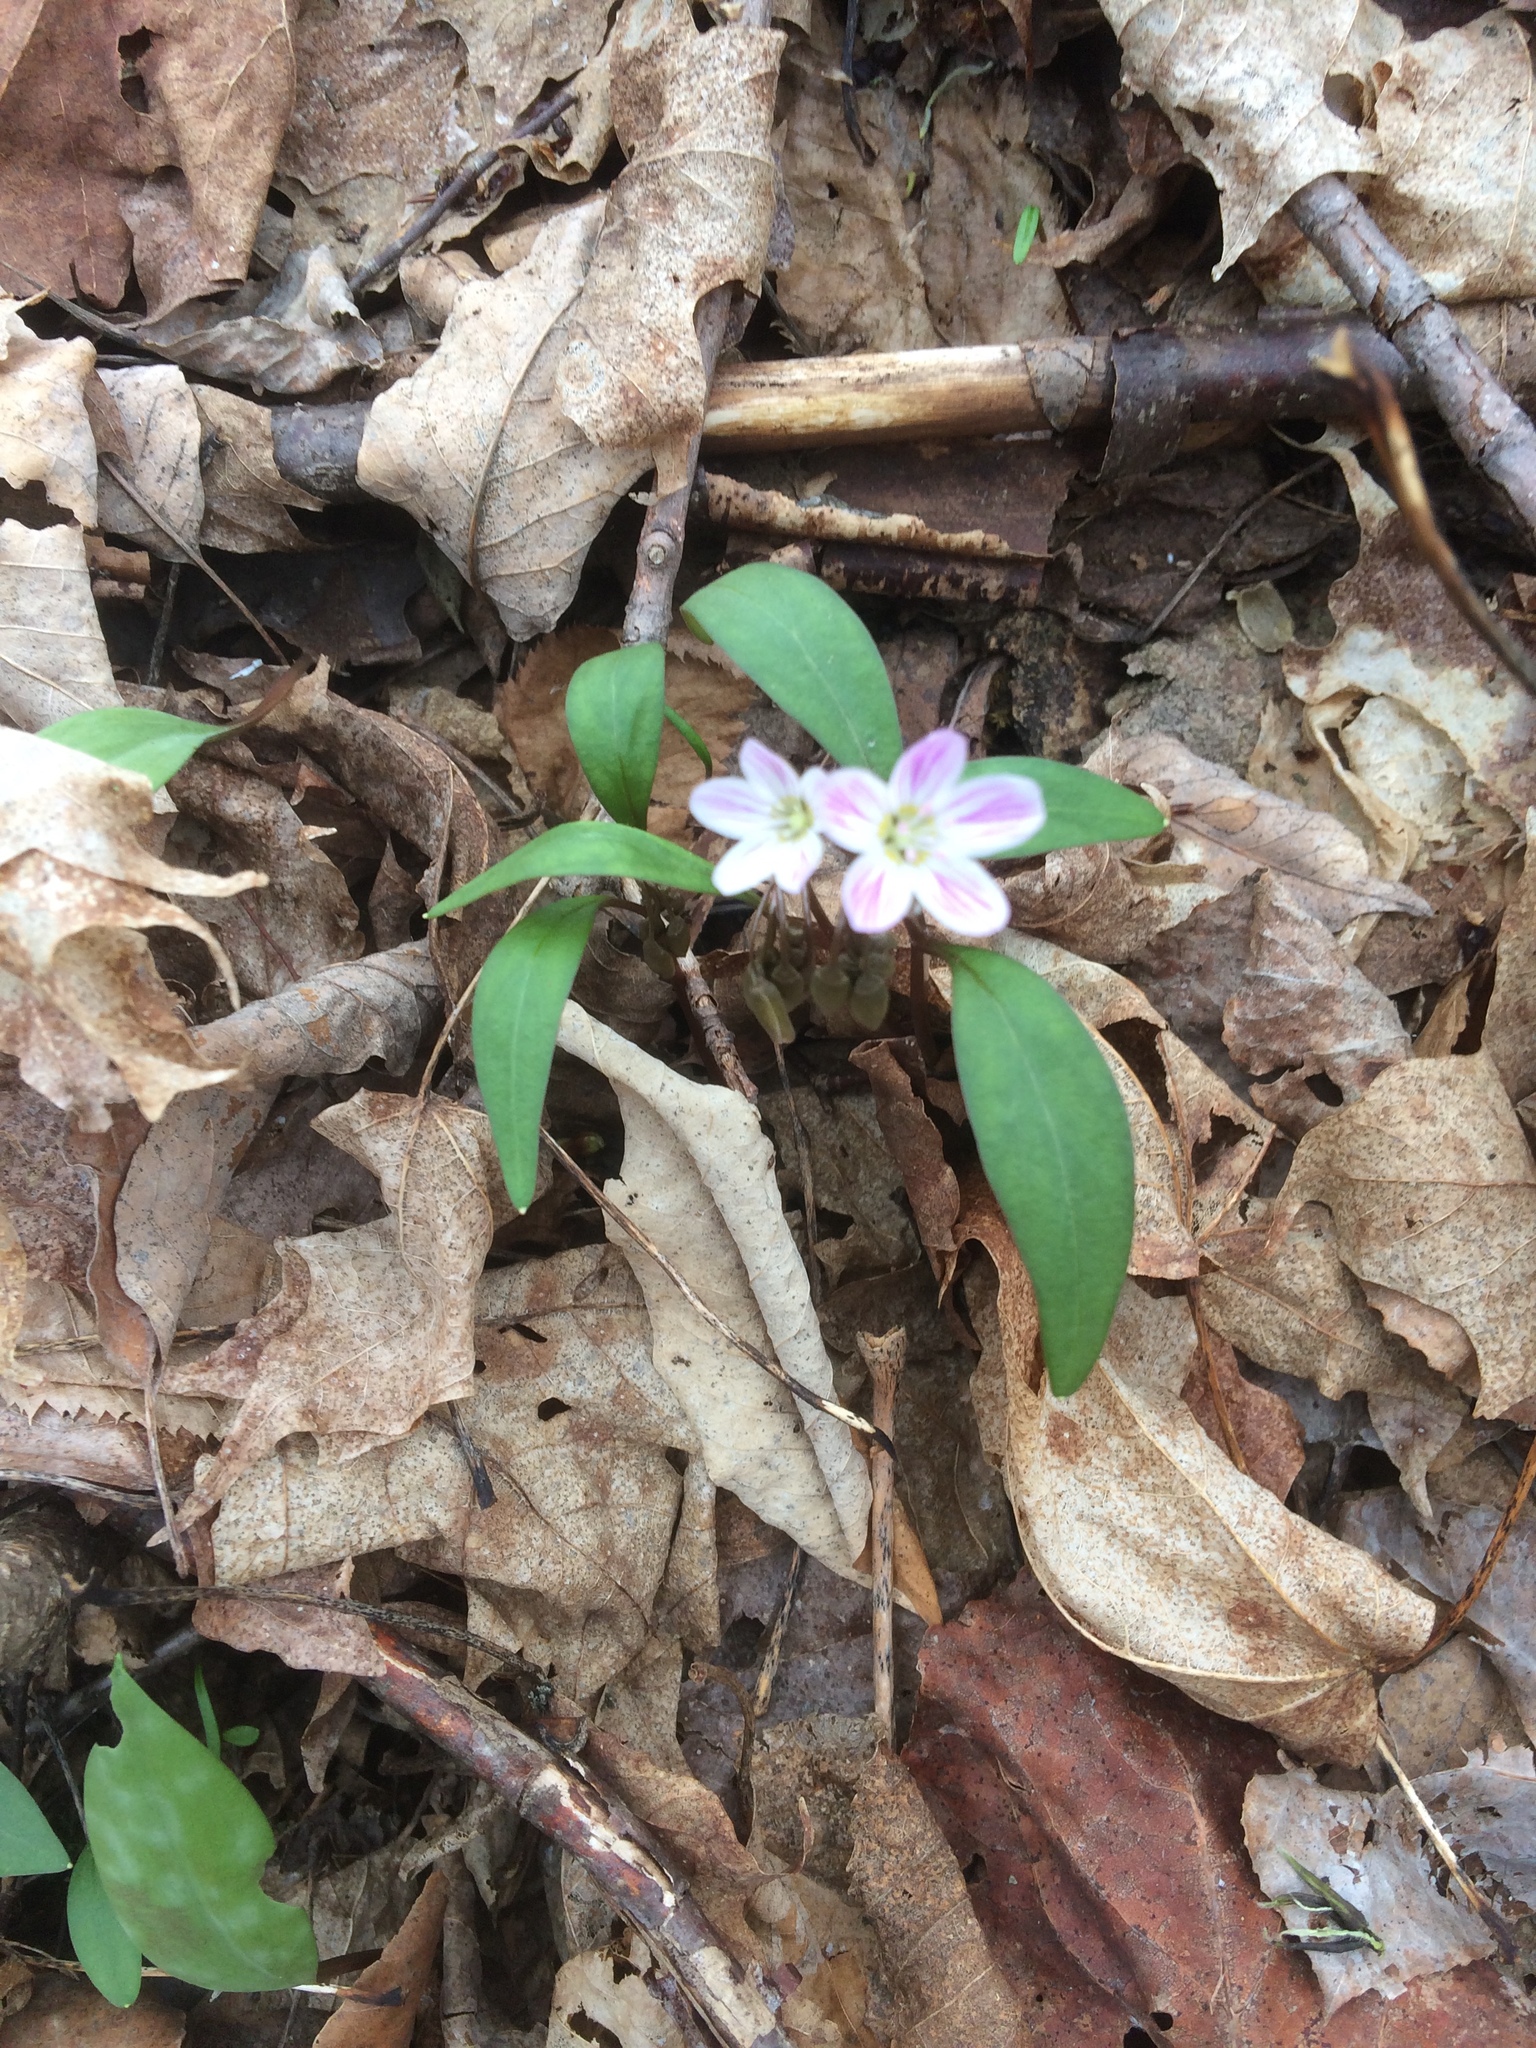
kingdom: Plantae
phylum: Tracheophyta
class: Magnoliopsida
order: Caryophyllales
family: Montiaceae
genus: Claytonia
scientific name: Claytonia caroliniana
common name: Carolina spring beauty
